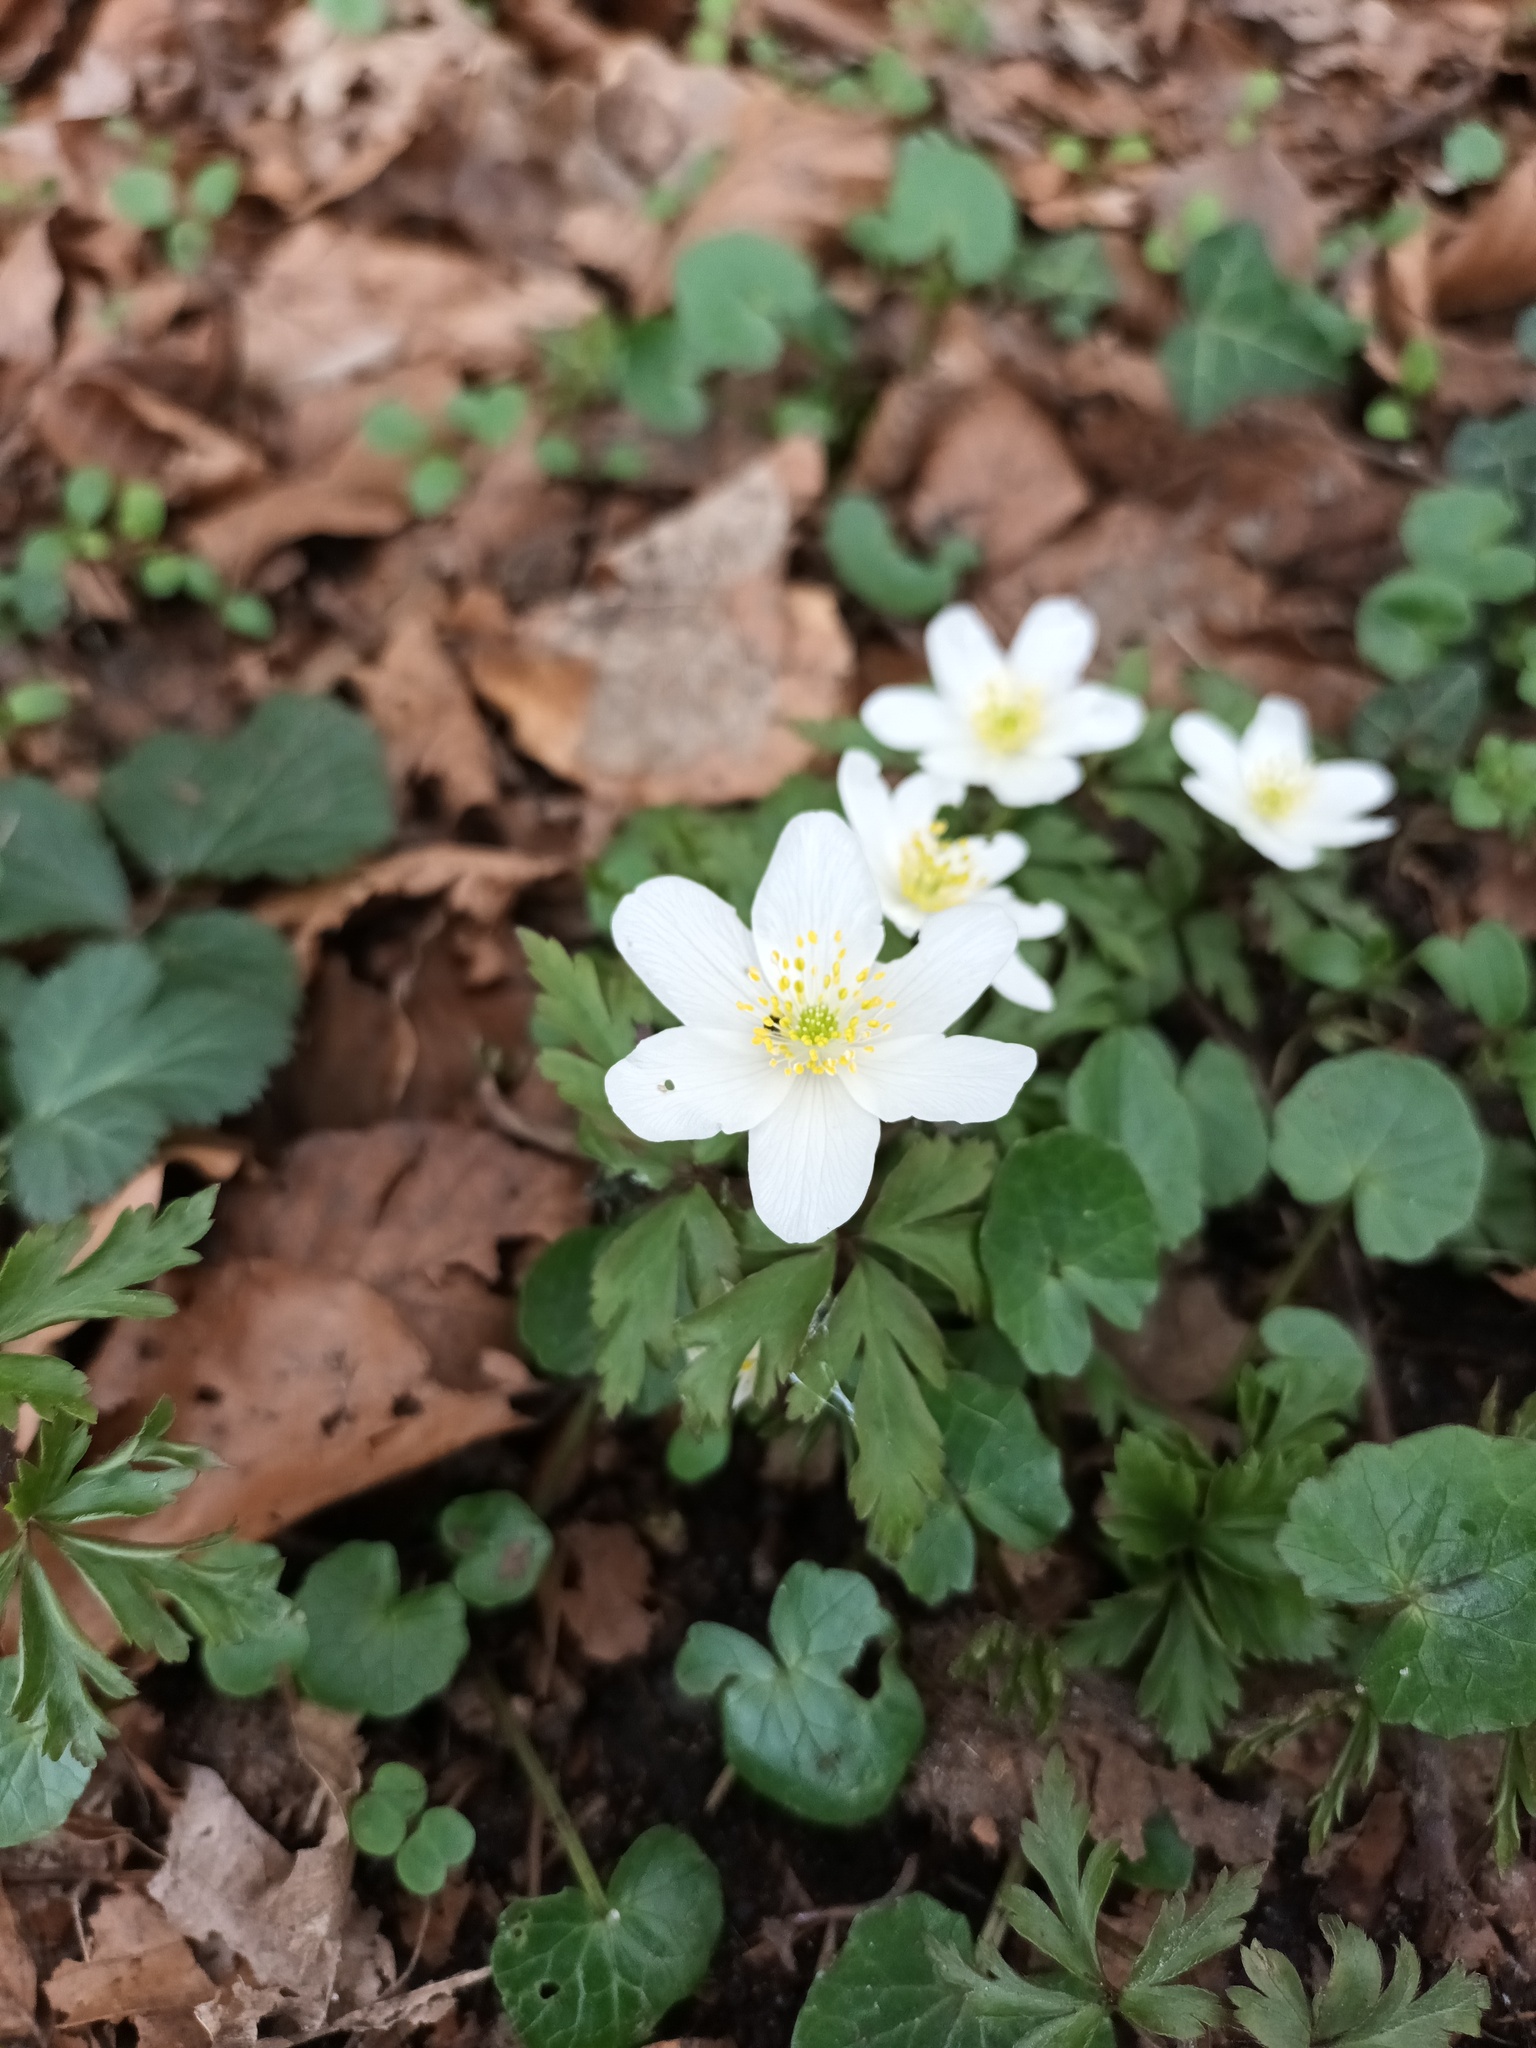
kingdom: Plantae
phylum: Tracheophyta
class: Magnoliopsida
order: Ranunculales
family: Ranunculaceae
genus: Anemone
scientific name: Anemone nemorosa
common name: Wood anemone
